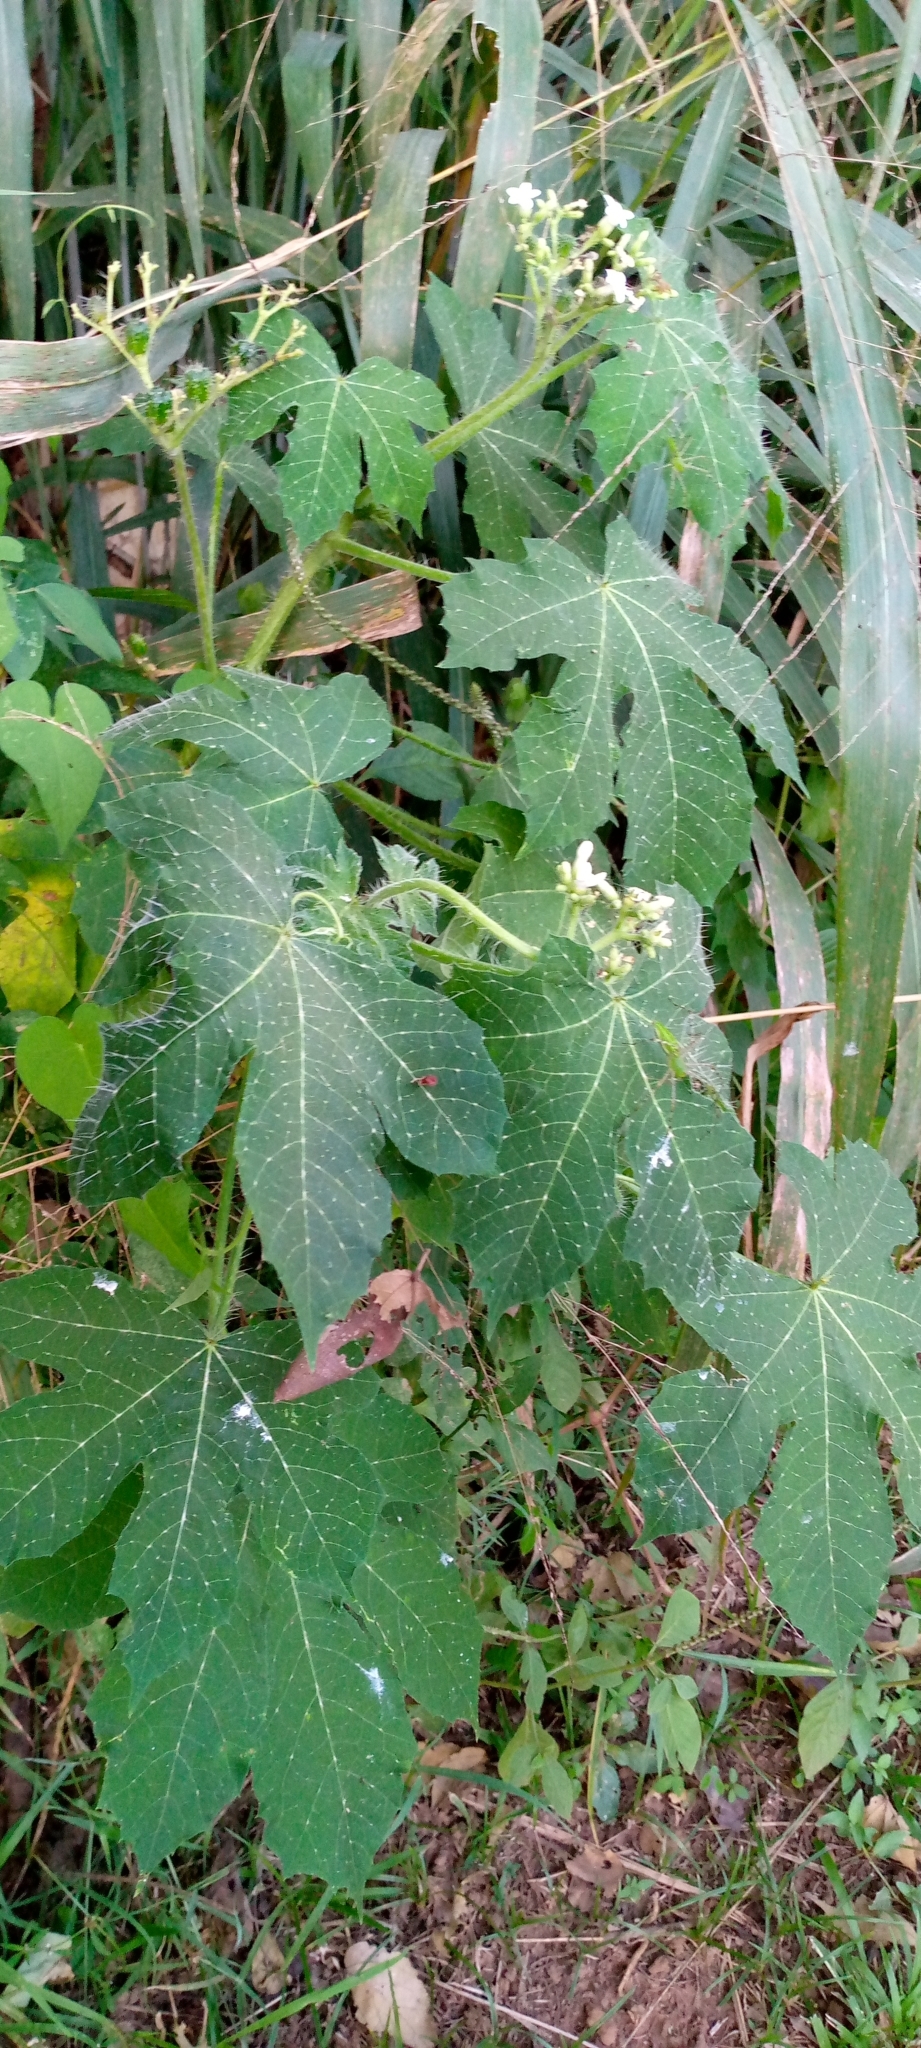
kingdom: Plantae
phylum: Tracheophyta
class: Magnoliopsida
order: Malpighiales
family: Euphorbiaceae
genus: Cnidoscolus
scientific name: Cnidoscolus urens
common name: Bull-nettle
